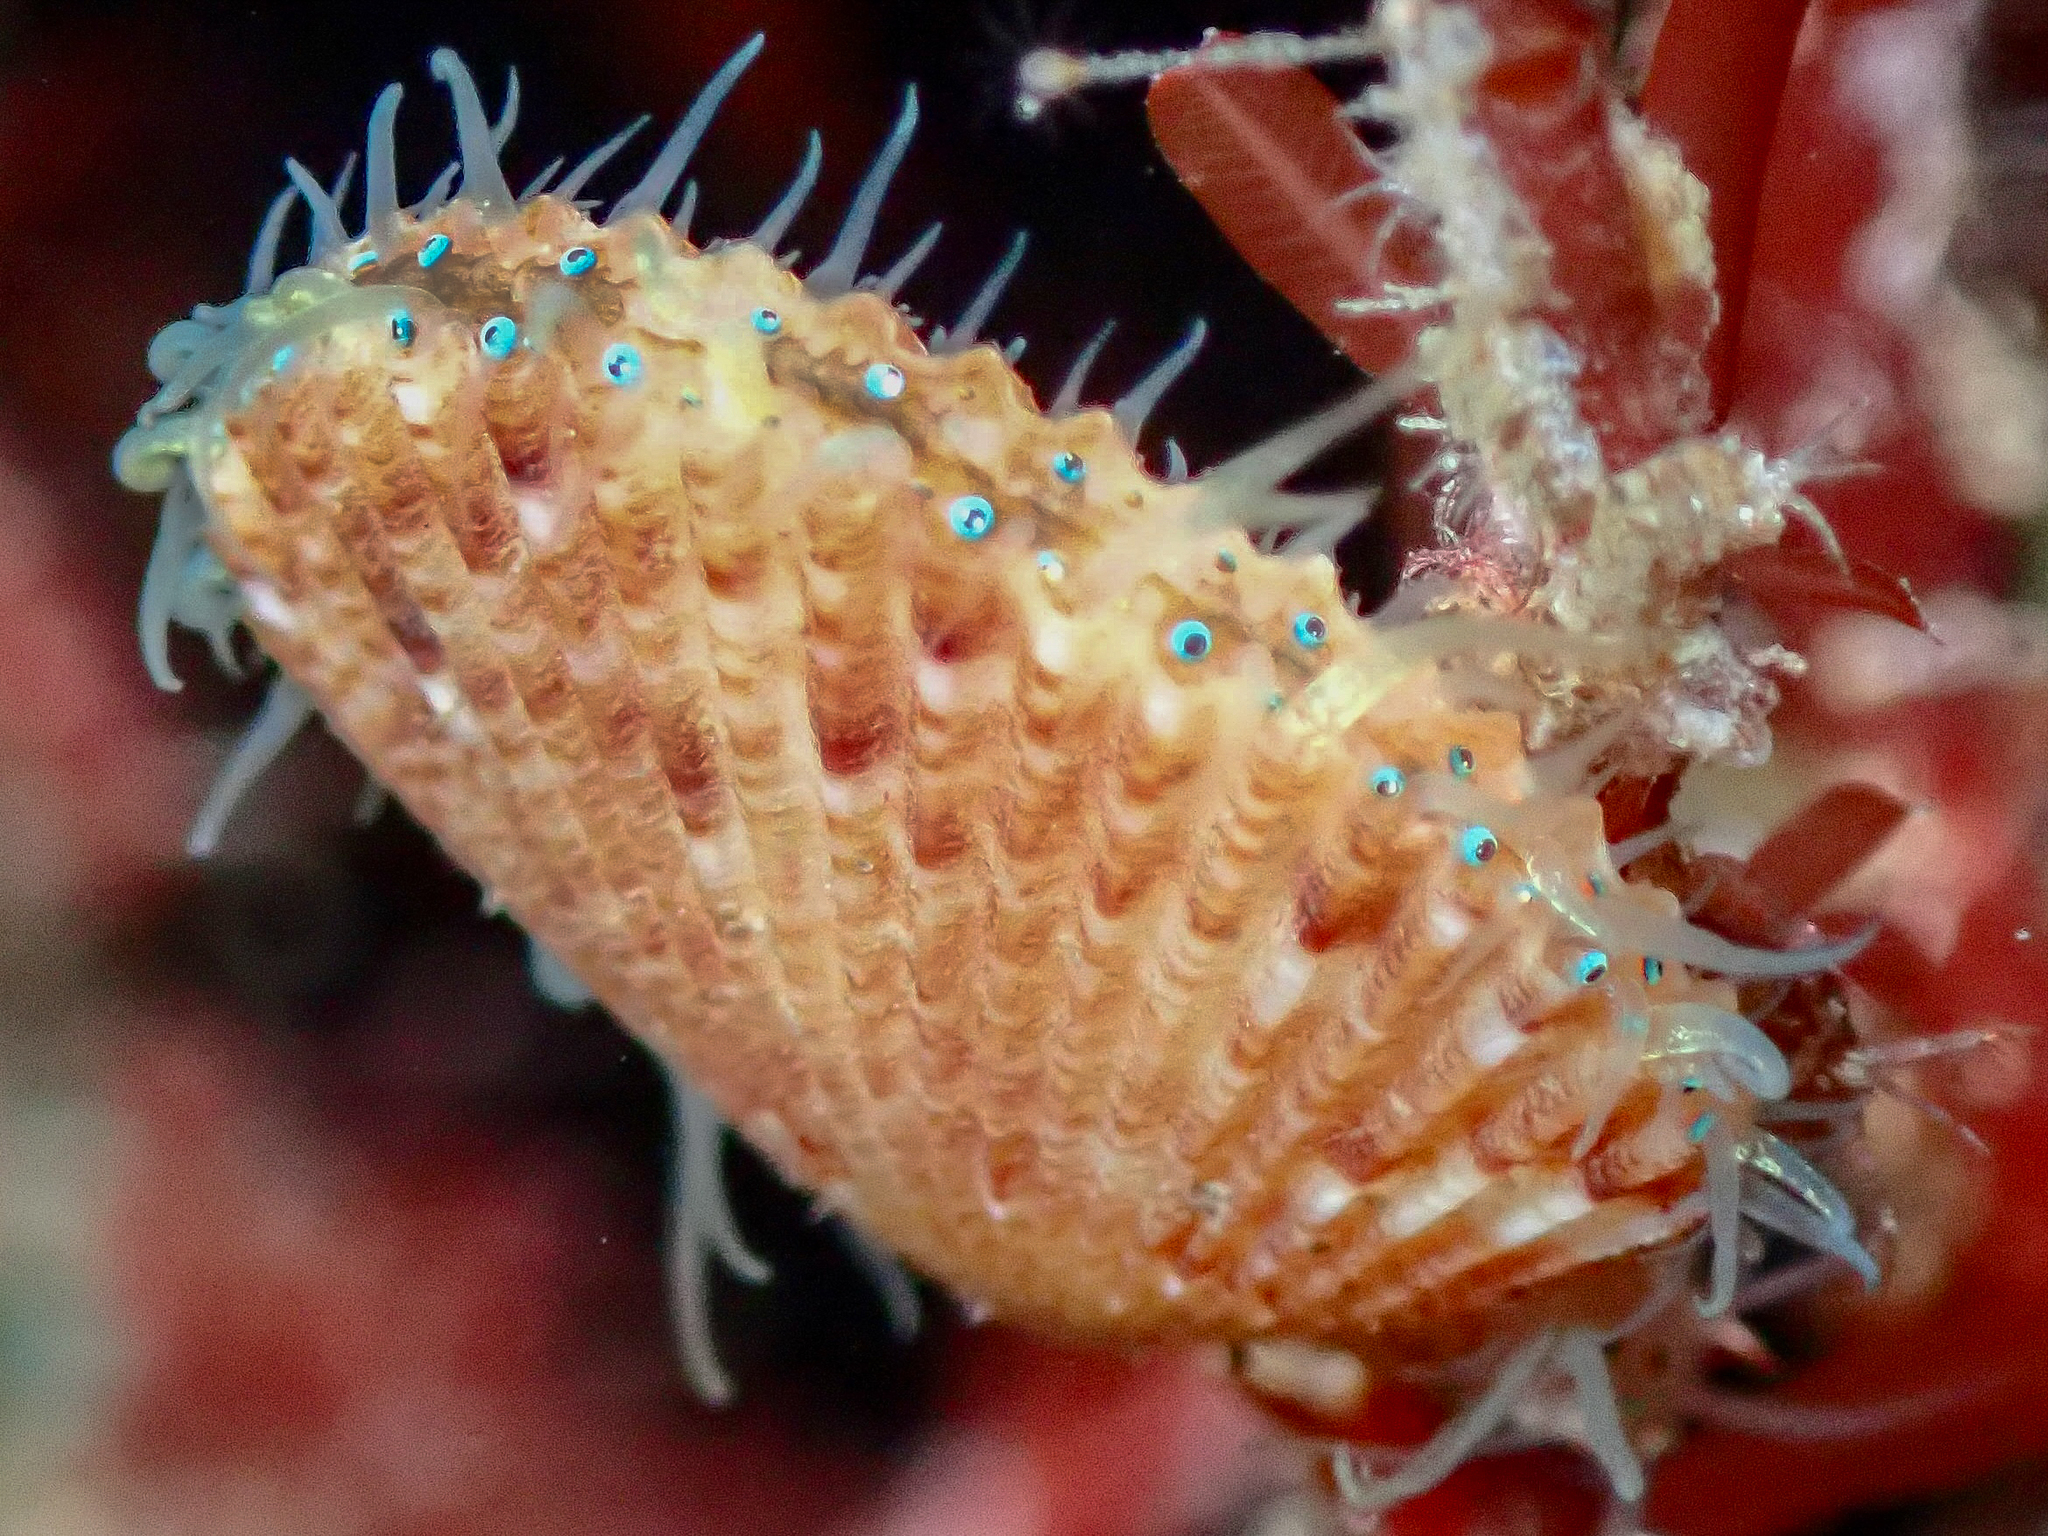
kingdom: Animalia
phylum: Mollusca
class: Bivalvia
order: Pectinida
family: Pectinidae
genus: Aequipecten
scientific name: Aequipecten opercularis
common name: Queen scallop
